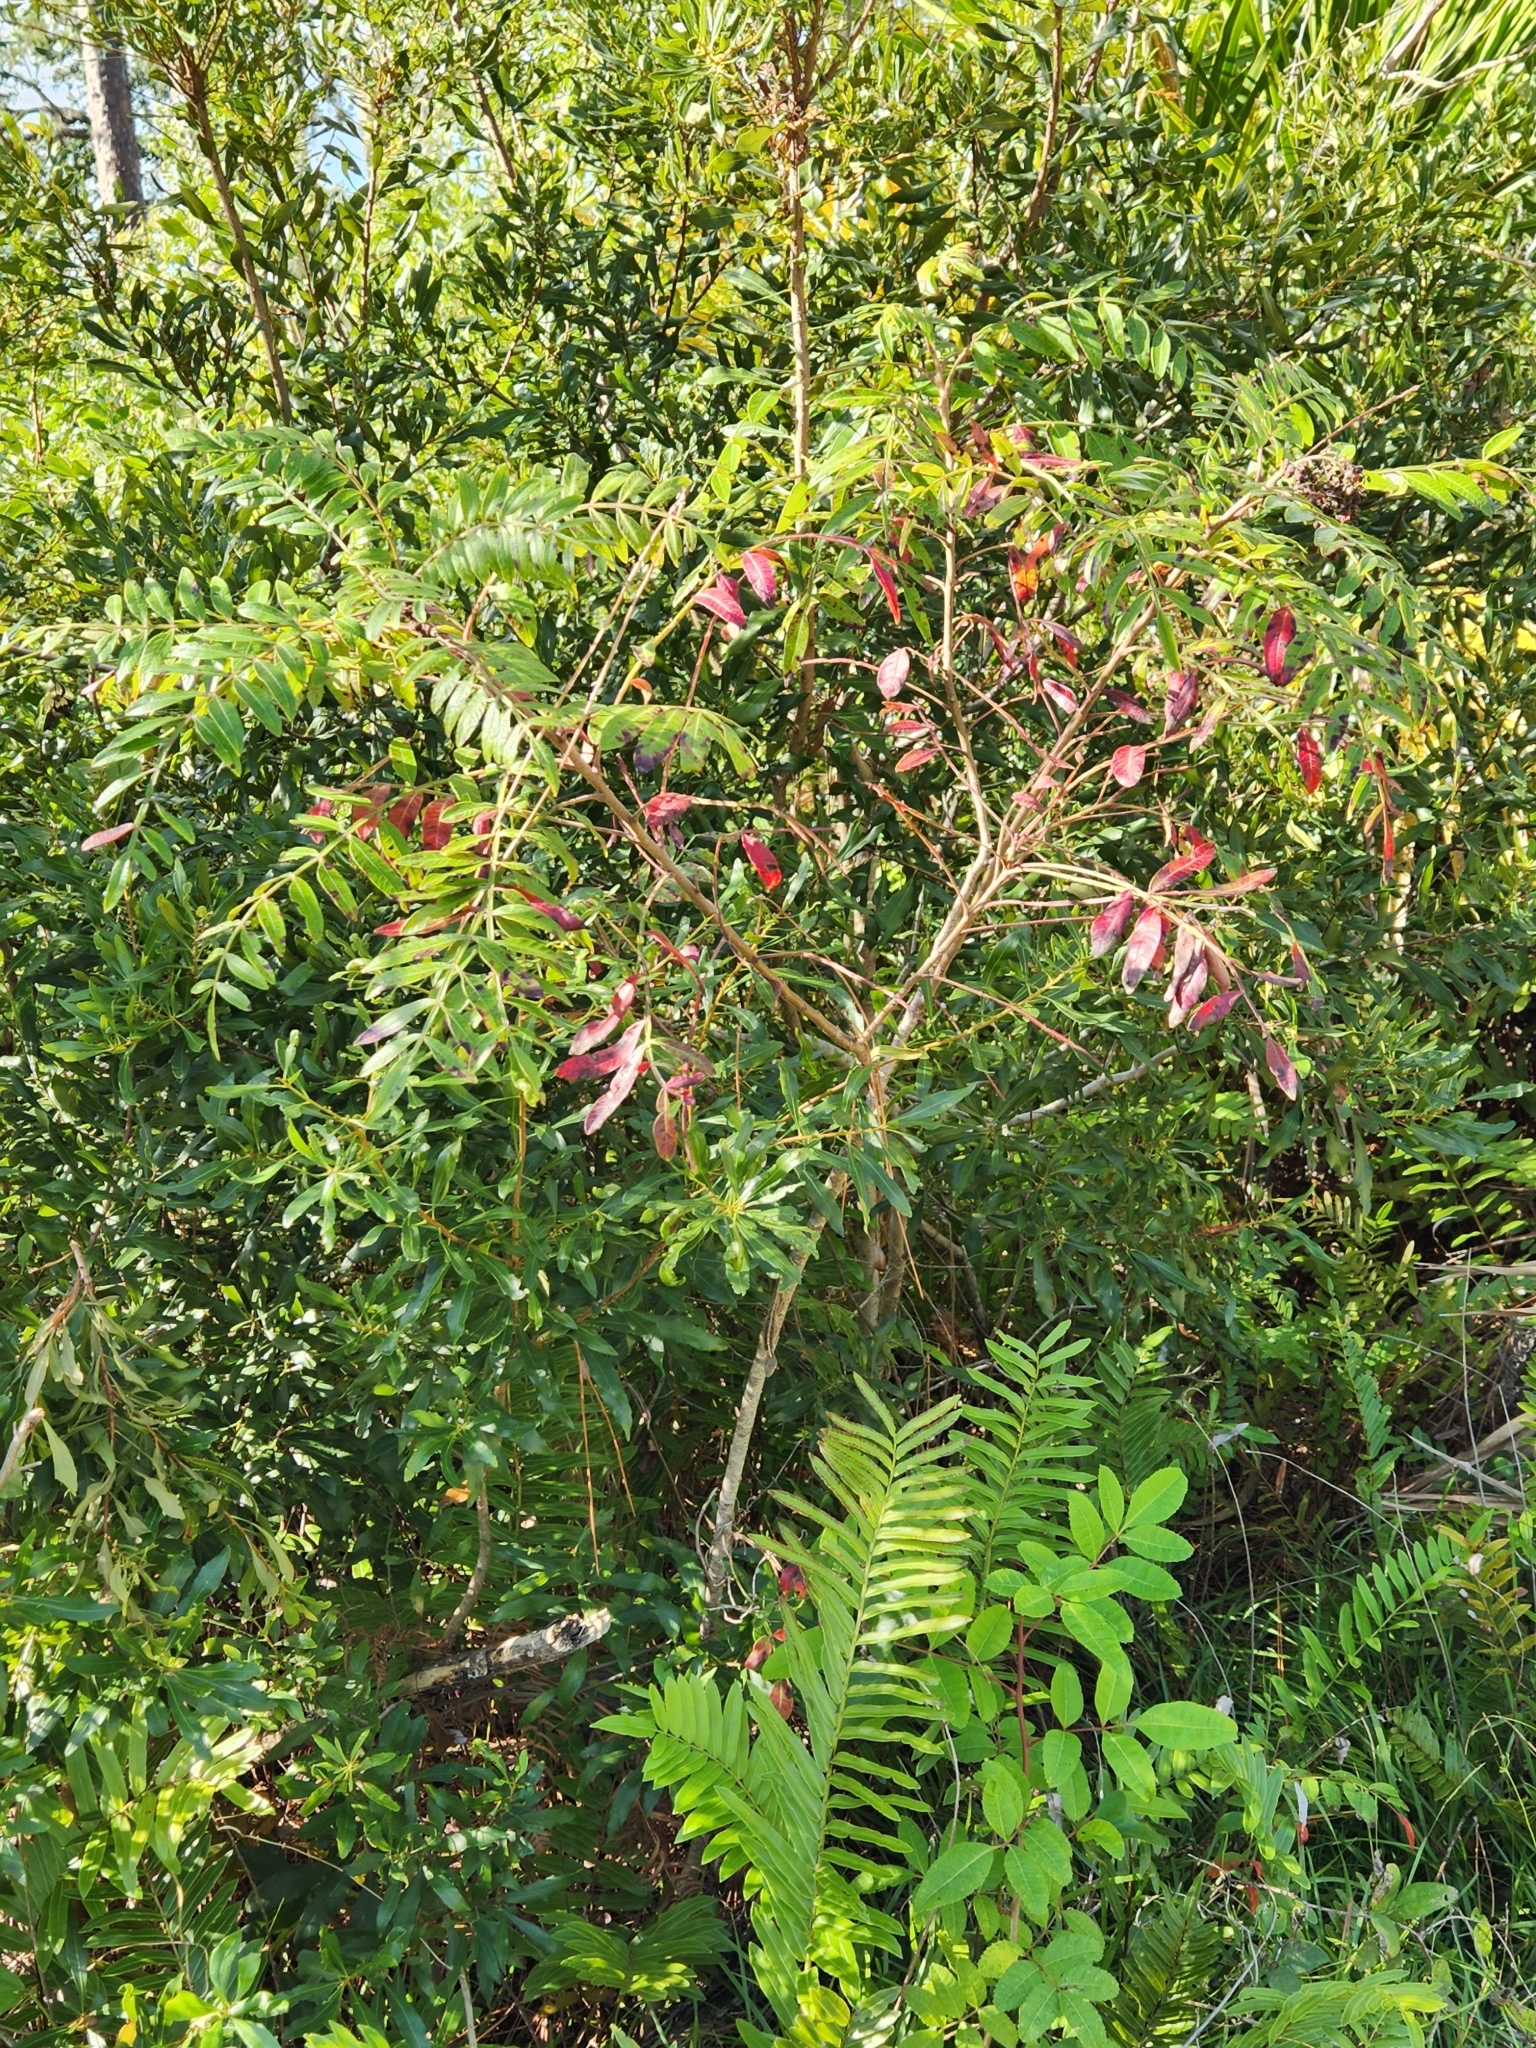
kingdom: Plantae
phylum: Tracheophyta
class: Magnoliopsida
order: Sapindales
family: Anacardiaceae
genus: Rhus
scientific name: Rhus copallina
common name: Shining sumac
